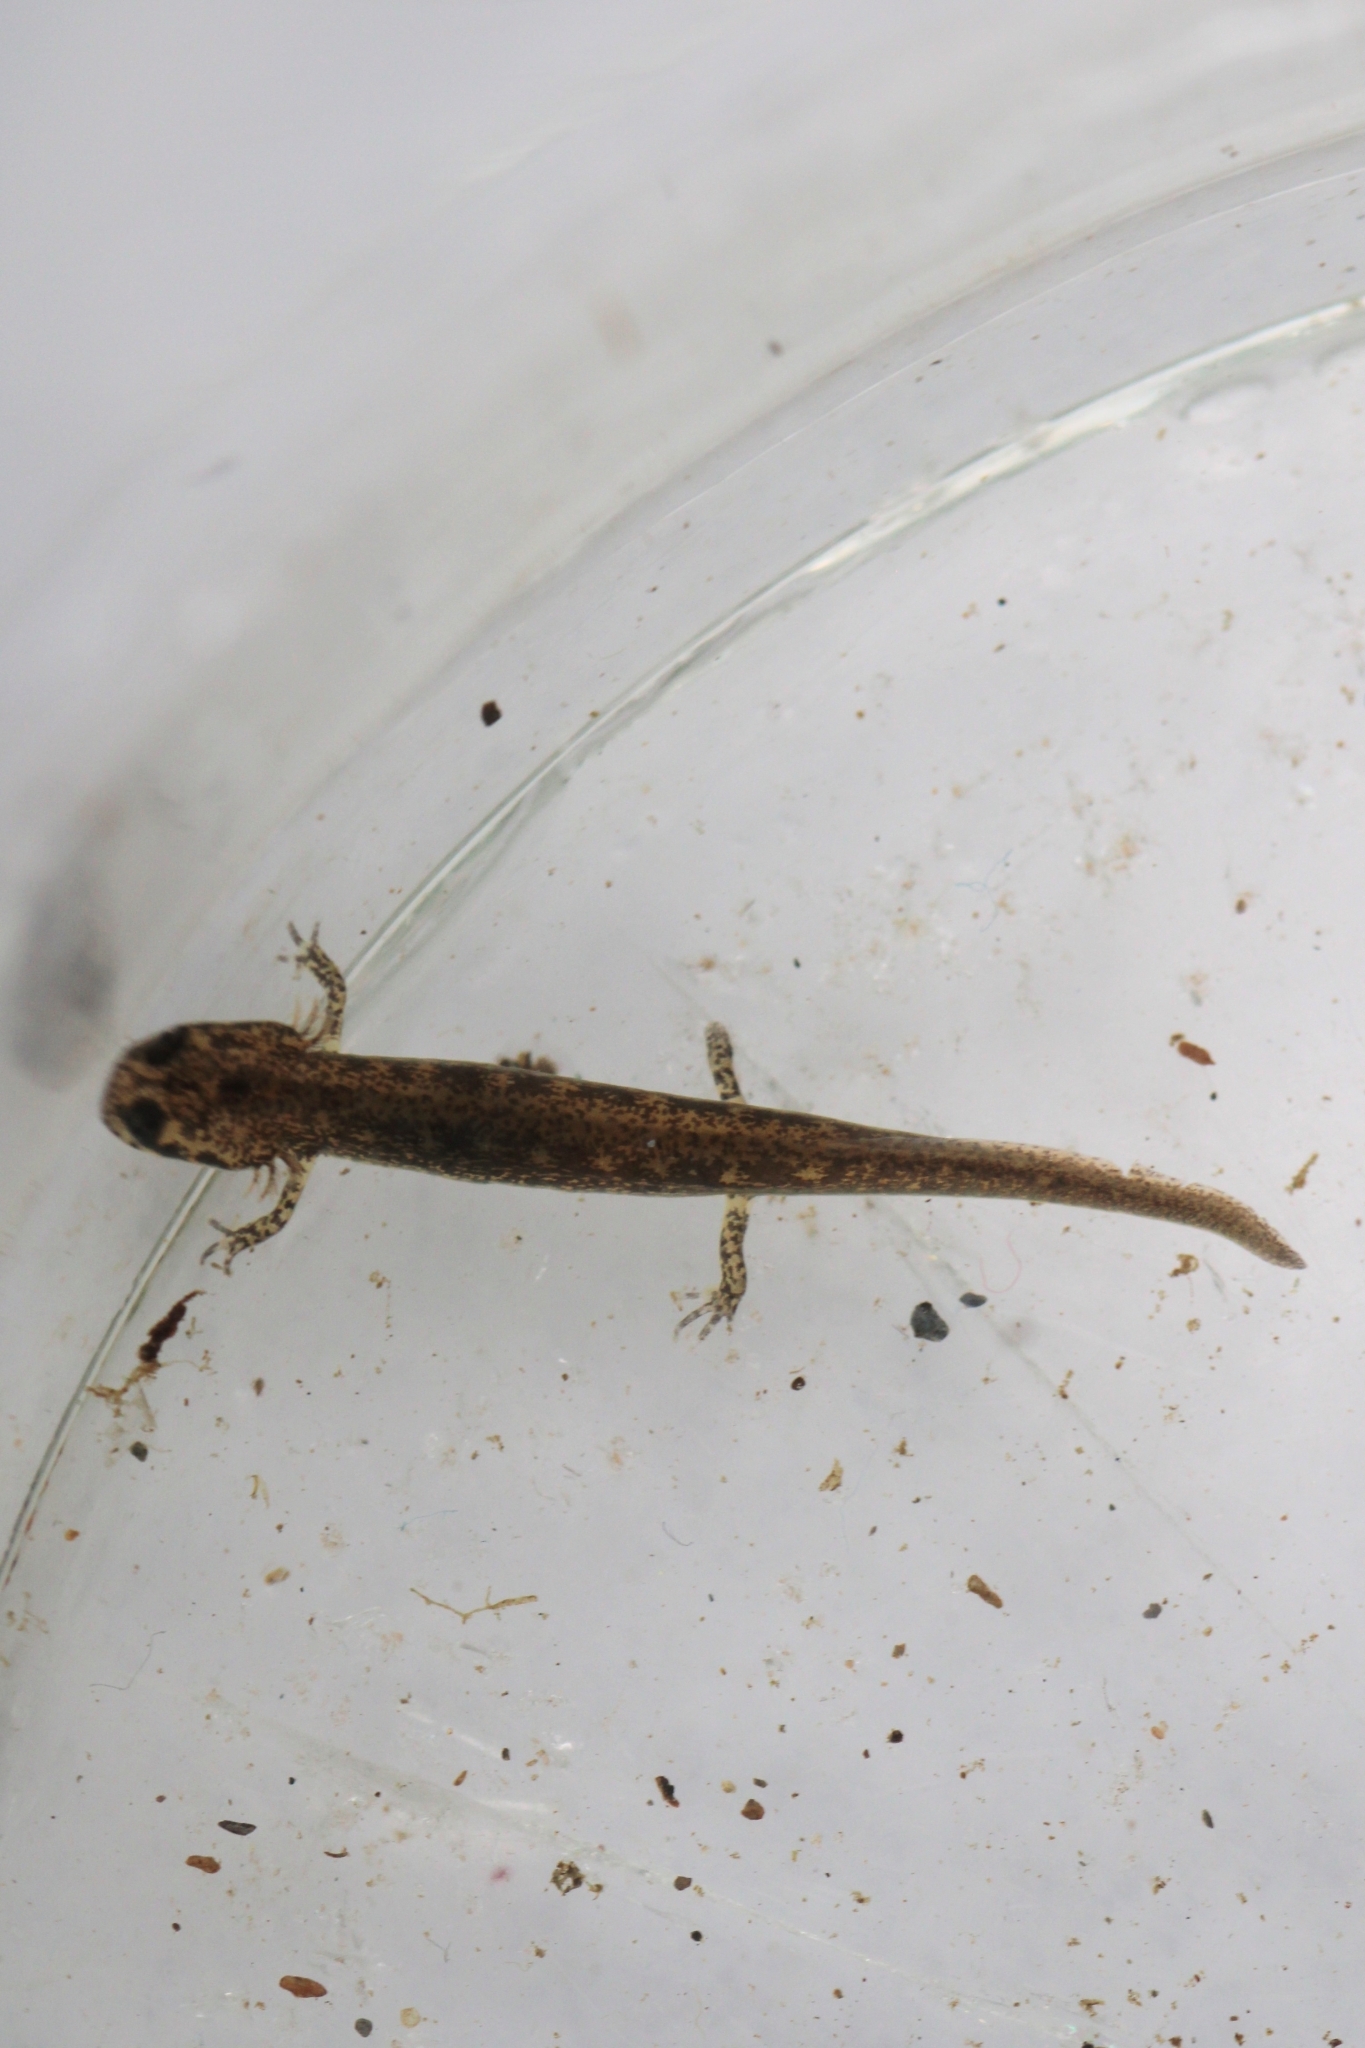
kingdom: Animalia
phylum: Chordata
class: Amphibia
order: Caudata
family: Plethodontidae
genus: Eurycea
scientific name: Eurycea bislineata
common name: Northern two-lined salamander
